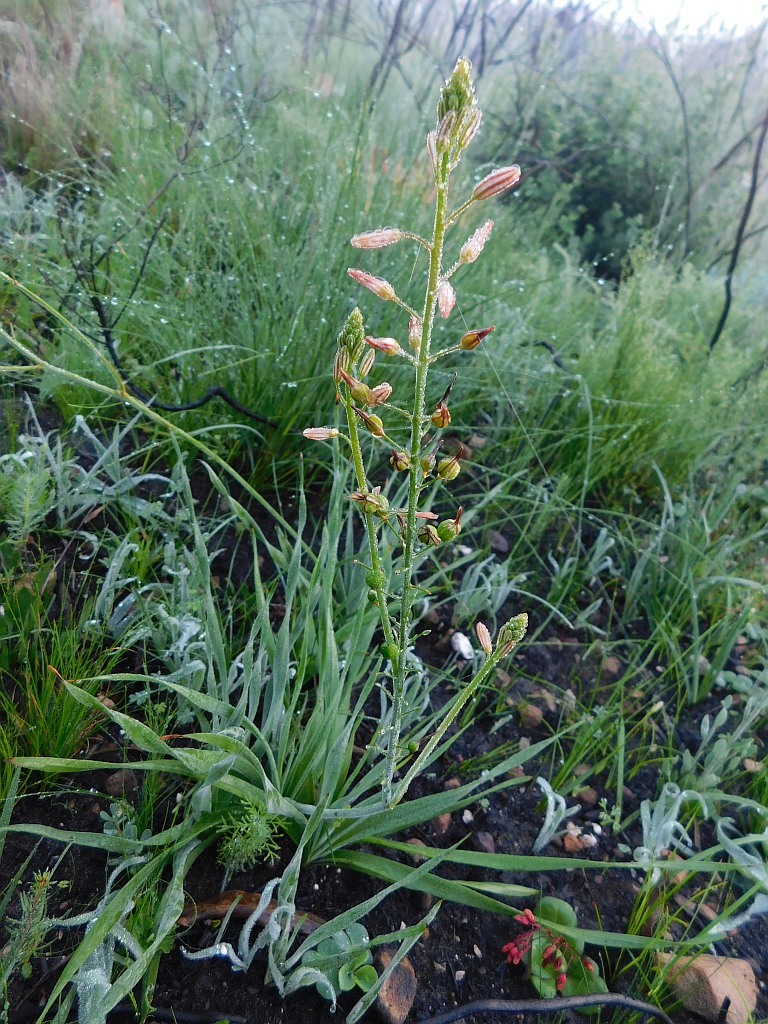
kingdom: Plantae
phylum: Tracheophyta
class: Liliopsida
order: Asparagales
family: Asphodelaceae
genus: Trachyandra
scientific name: Trachyandra hirsuta
